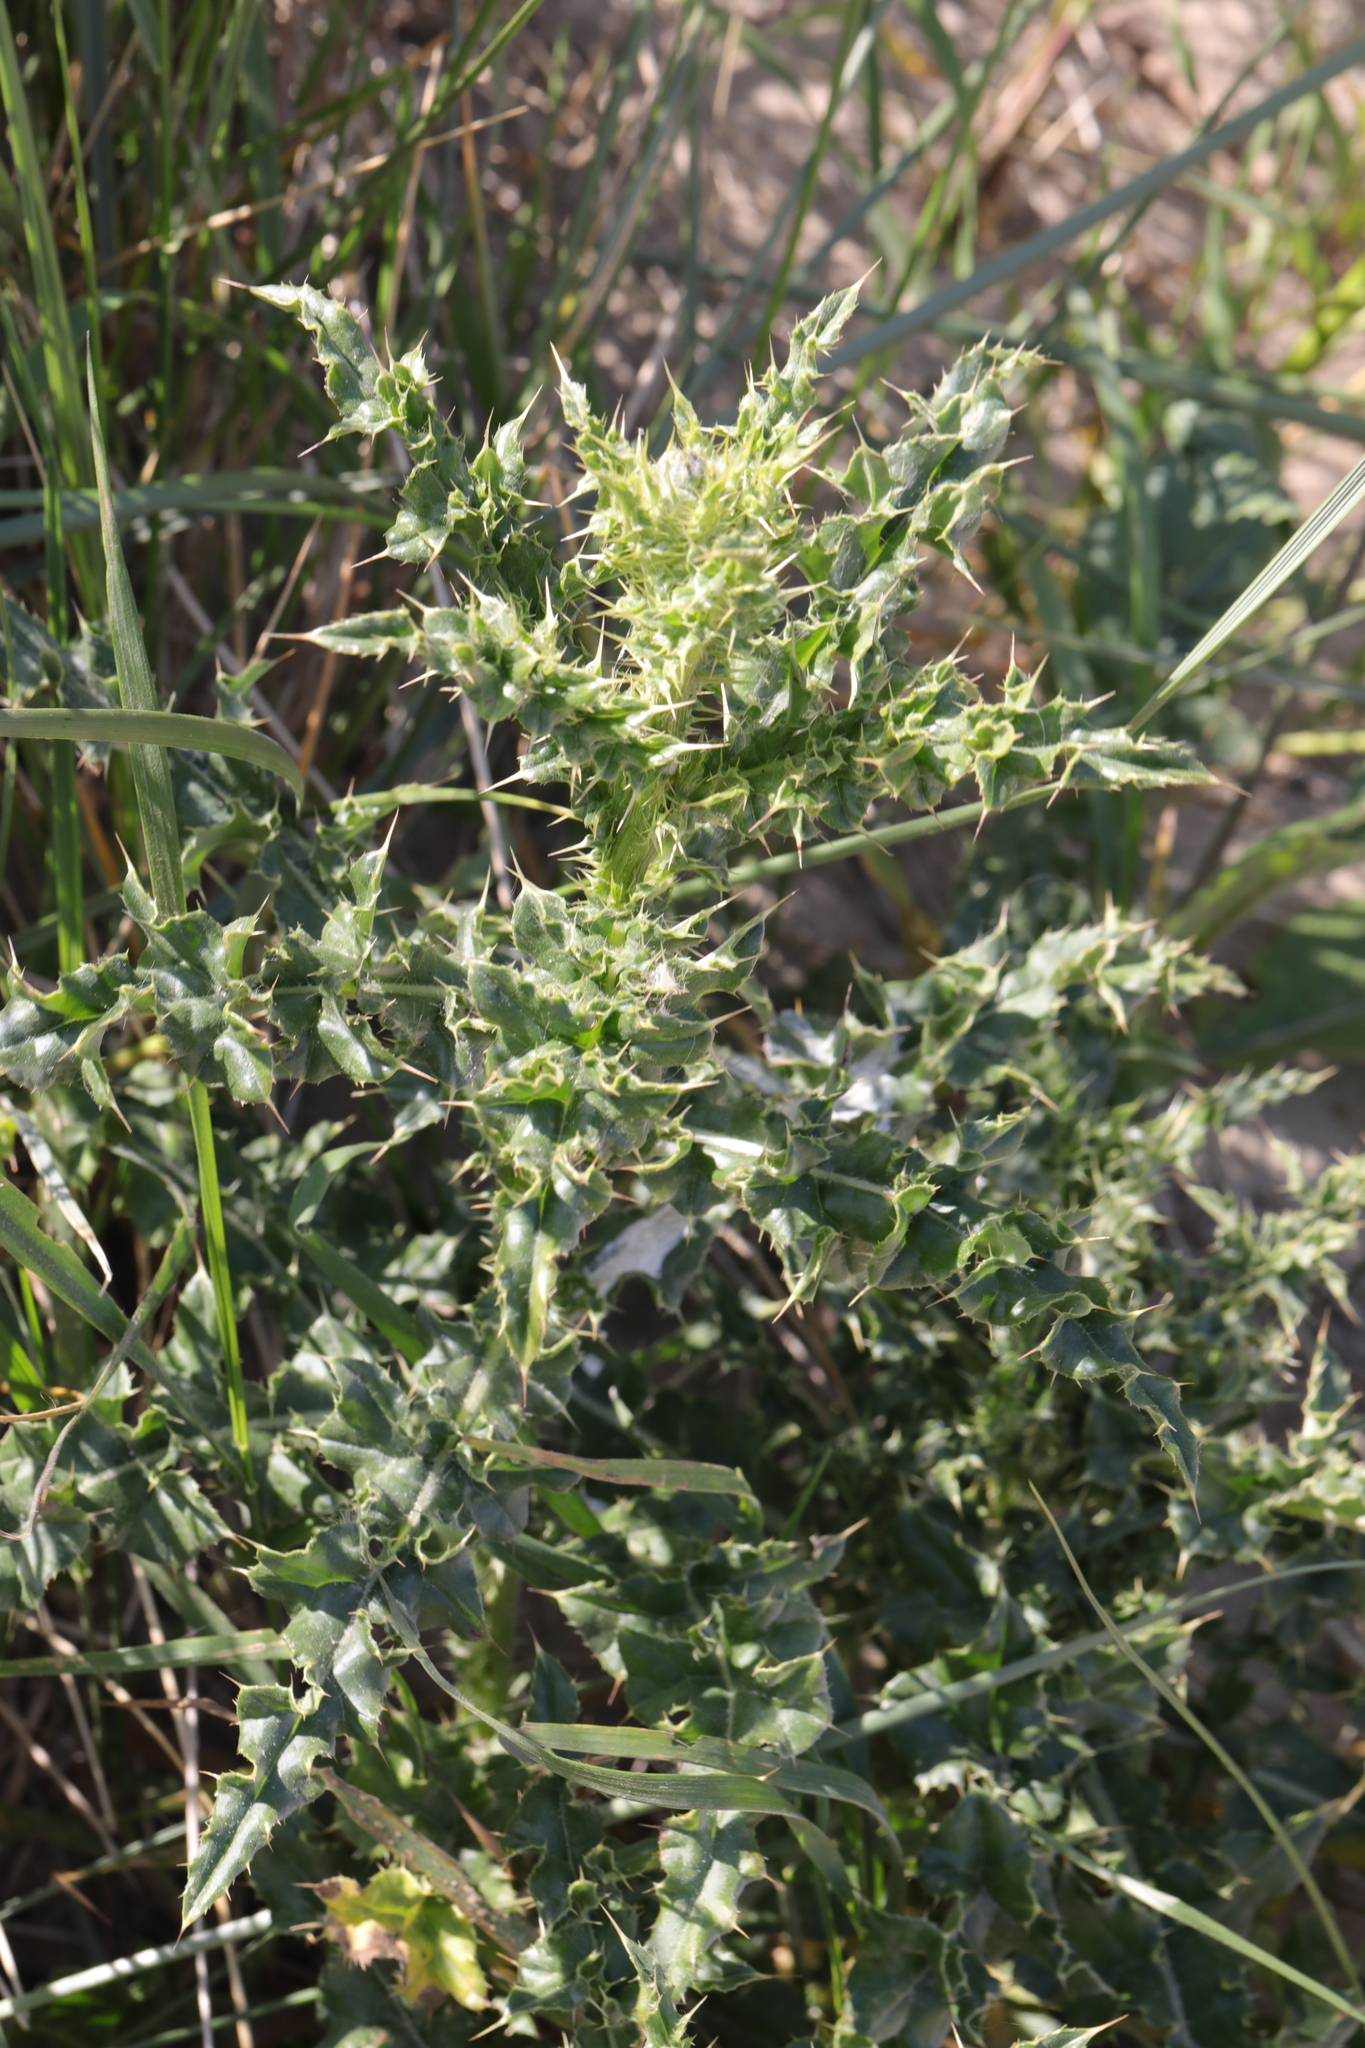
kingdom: Plantae
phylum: Tracheophyta
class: Magnoliopsida
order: Asterales
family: Asteraceae
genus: Cirsium
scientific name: Cirsium arvense
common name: Creeping thistle
